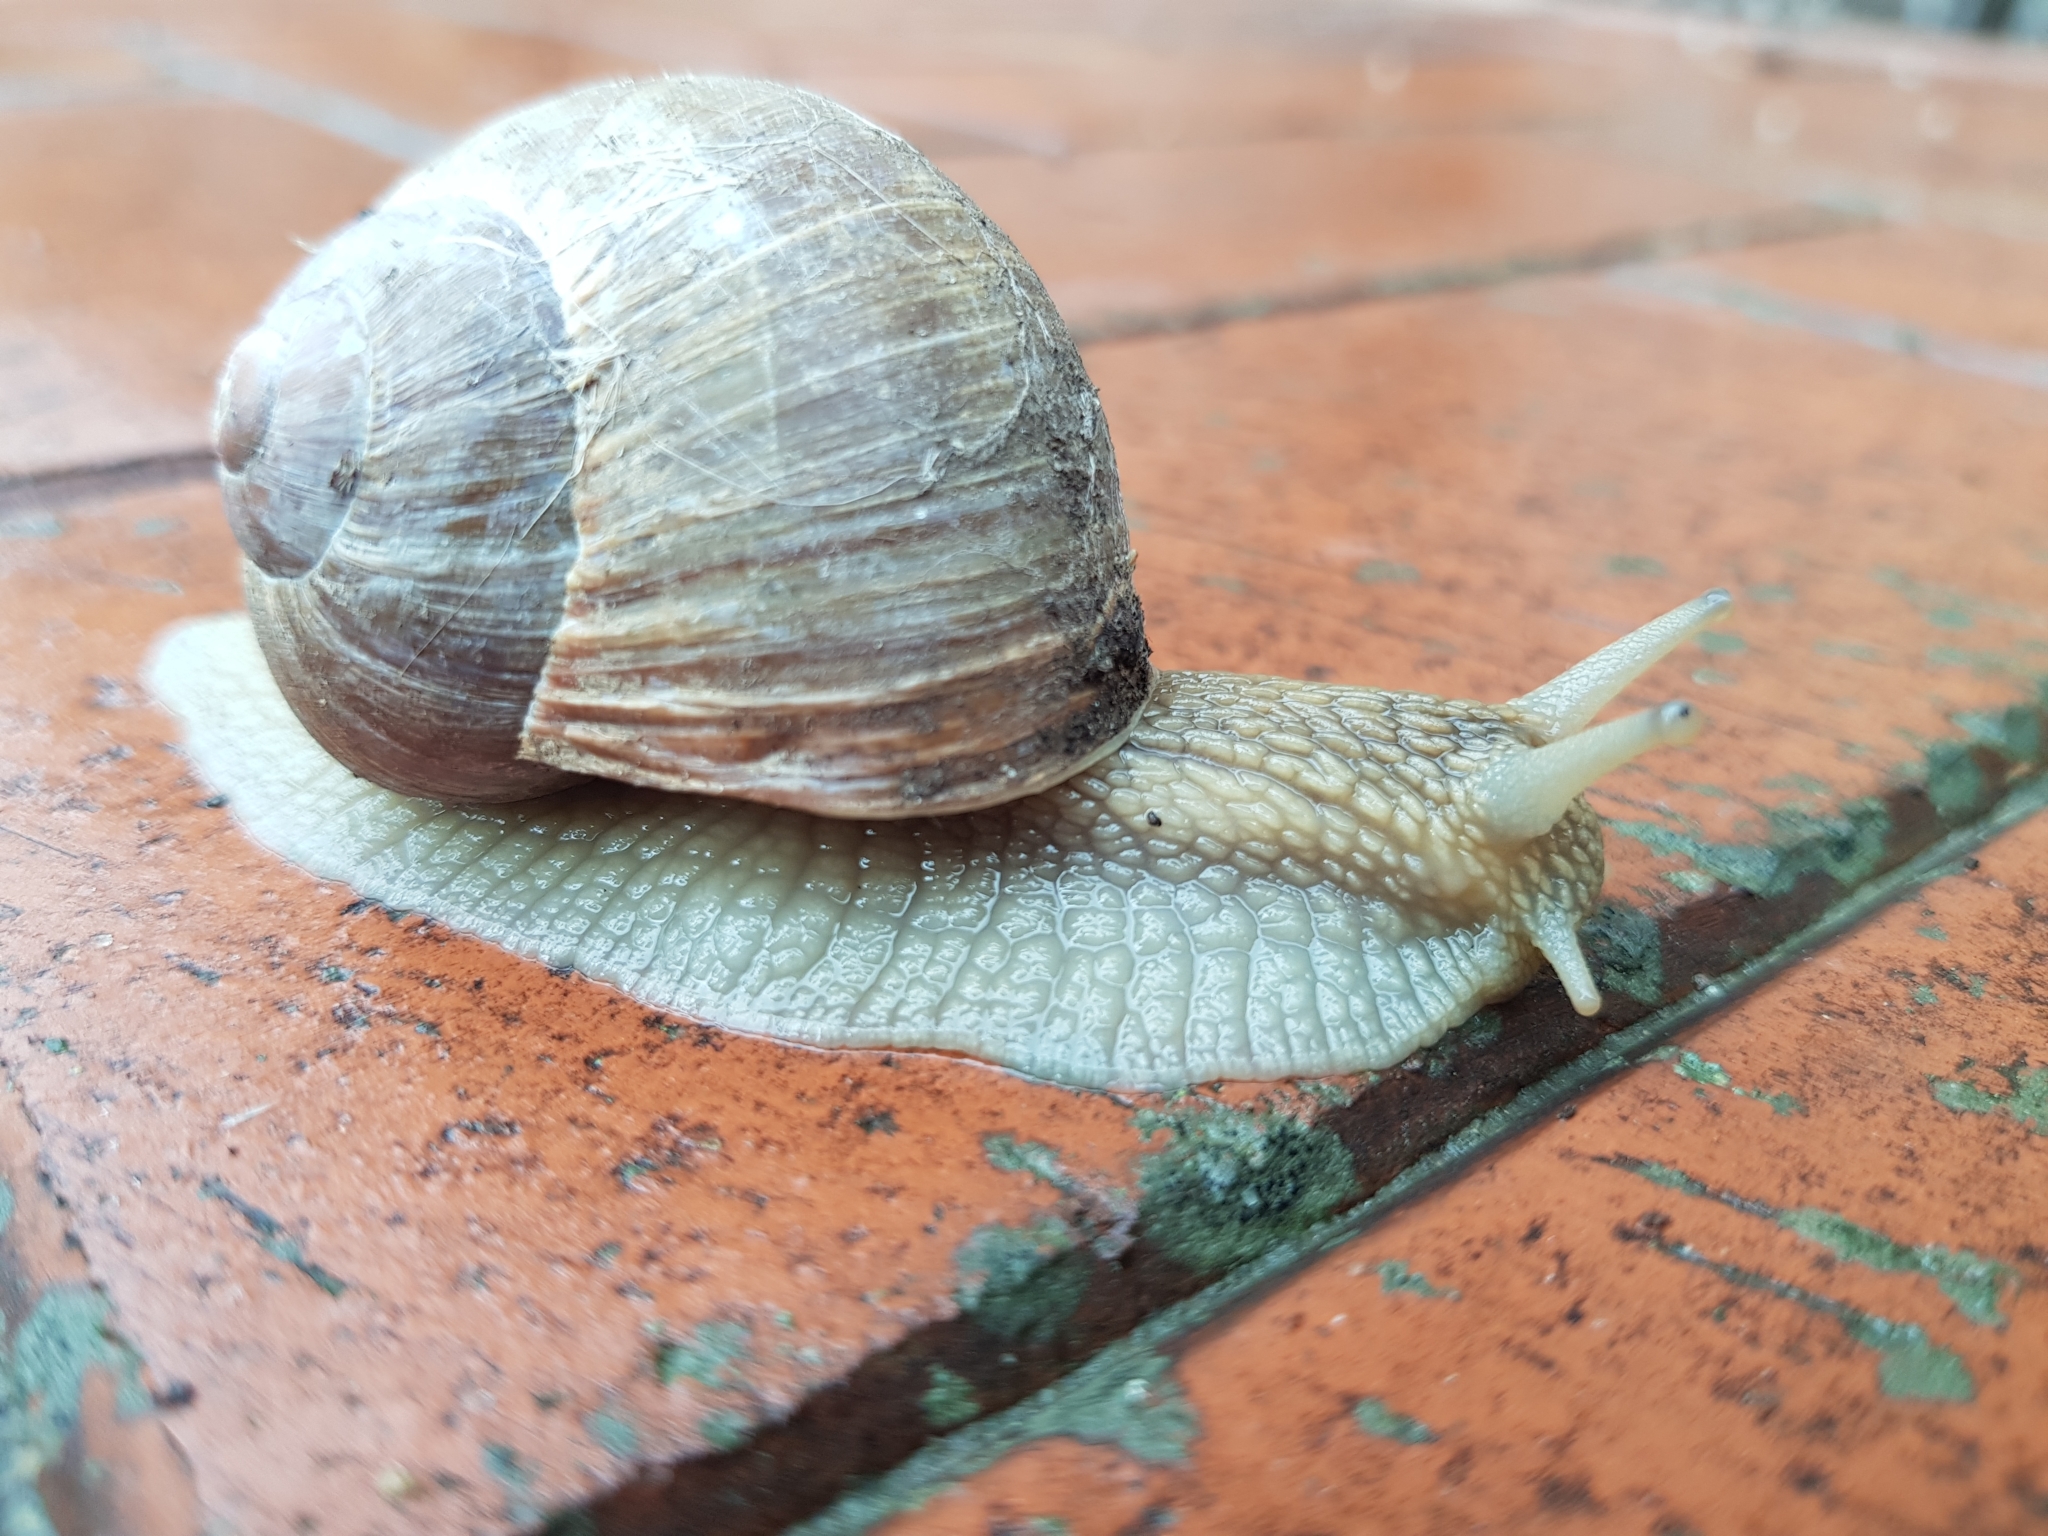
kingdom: Animalia
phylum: Mollusca
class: Gastropoda
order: Stylommatophora
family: Helicidae
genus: Helix
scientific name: Helix pomatia
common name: Roman snail
